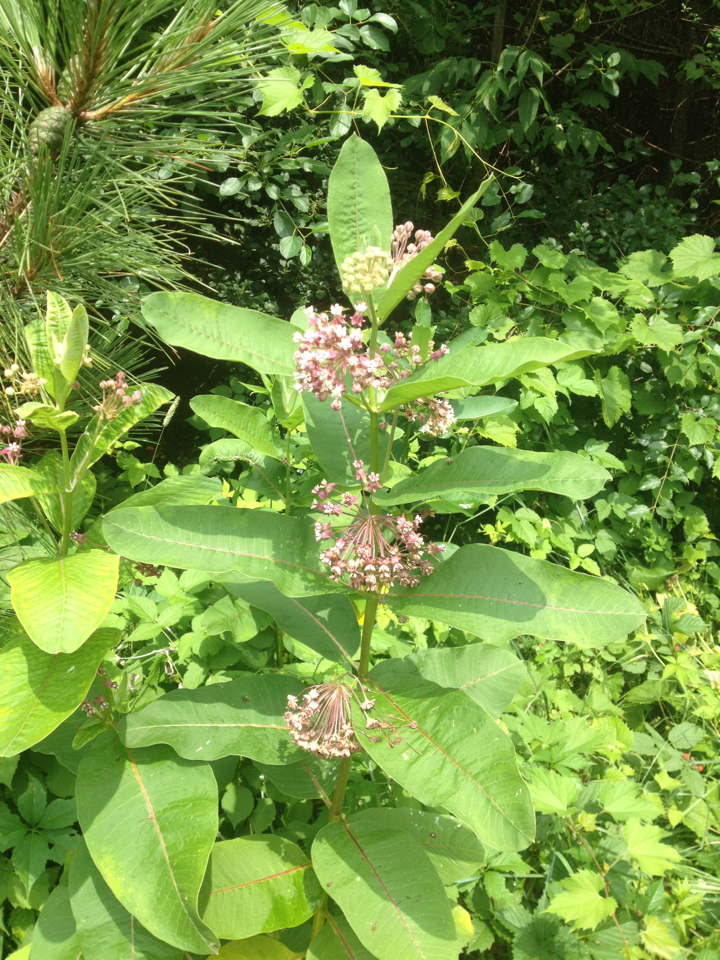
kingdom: Plantae
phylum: Tracheophyta
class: Magnoliopsida
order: Gentianales
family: Apocynaceae
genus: Asclepias
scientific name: Asclepias syriaca
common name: Common milkweed
